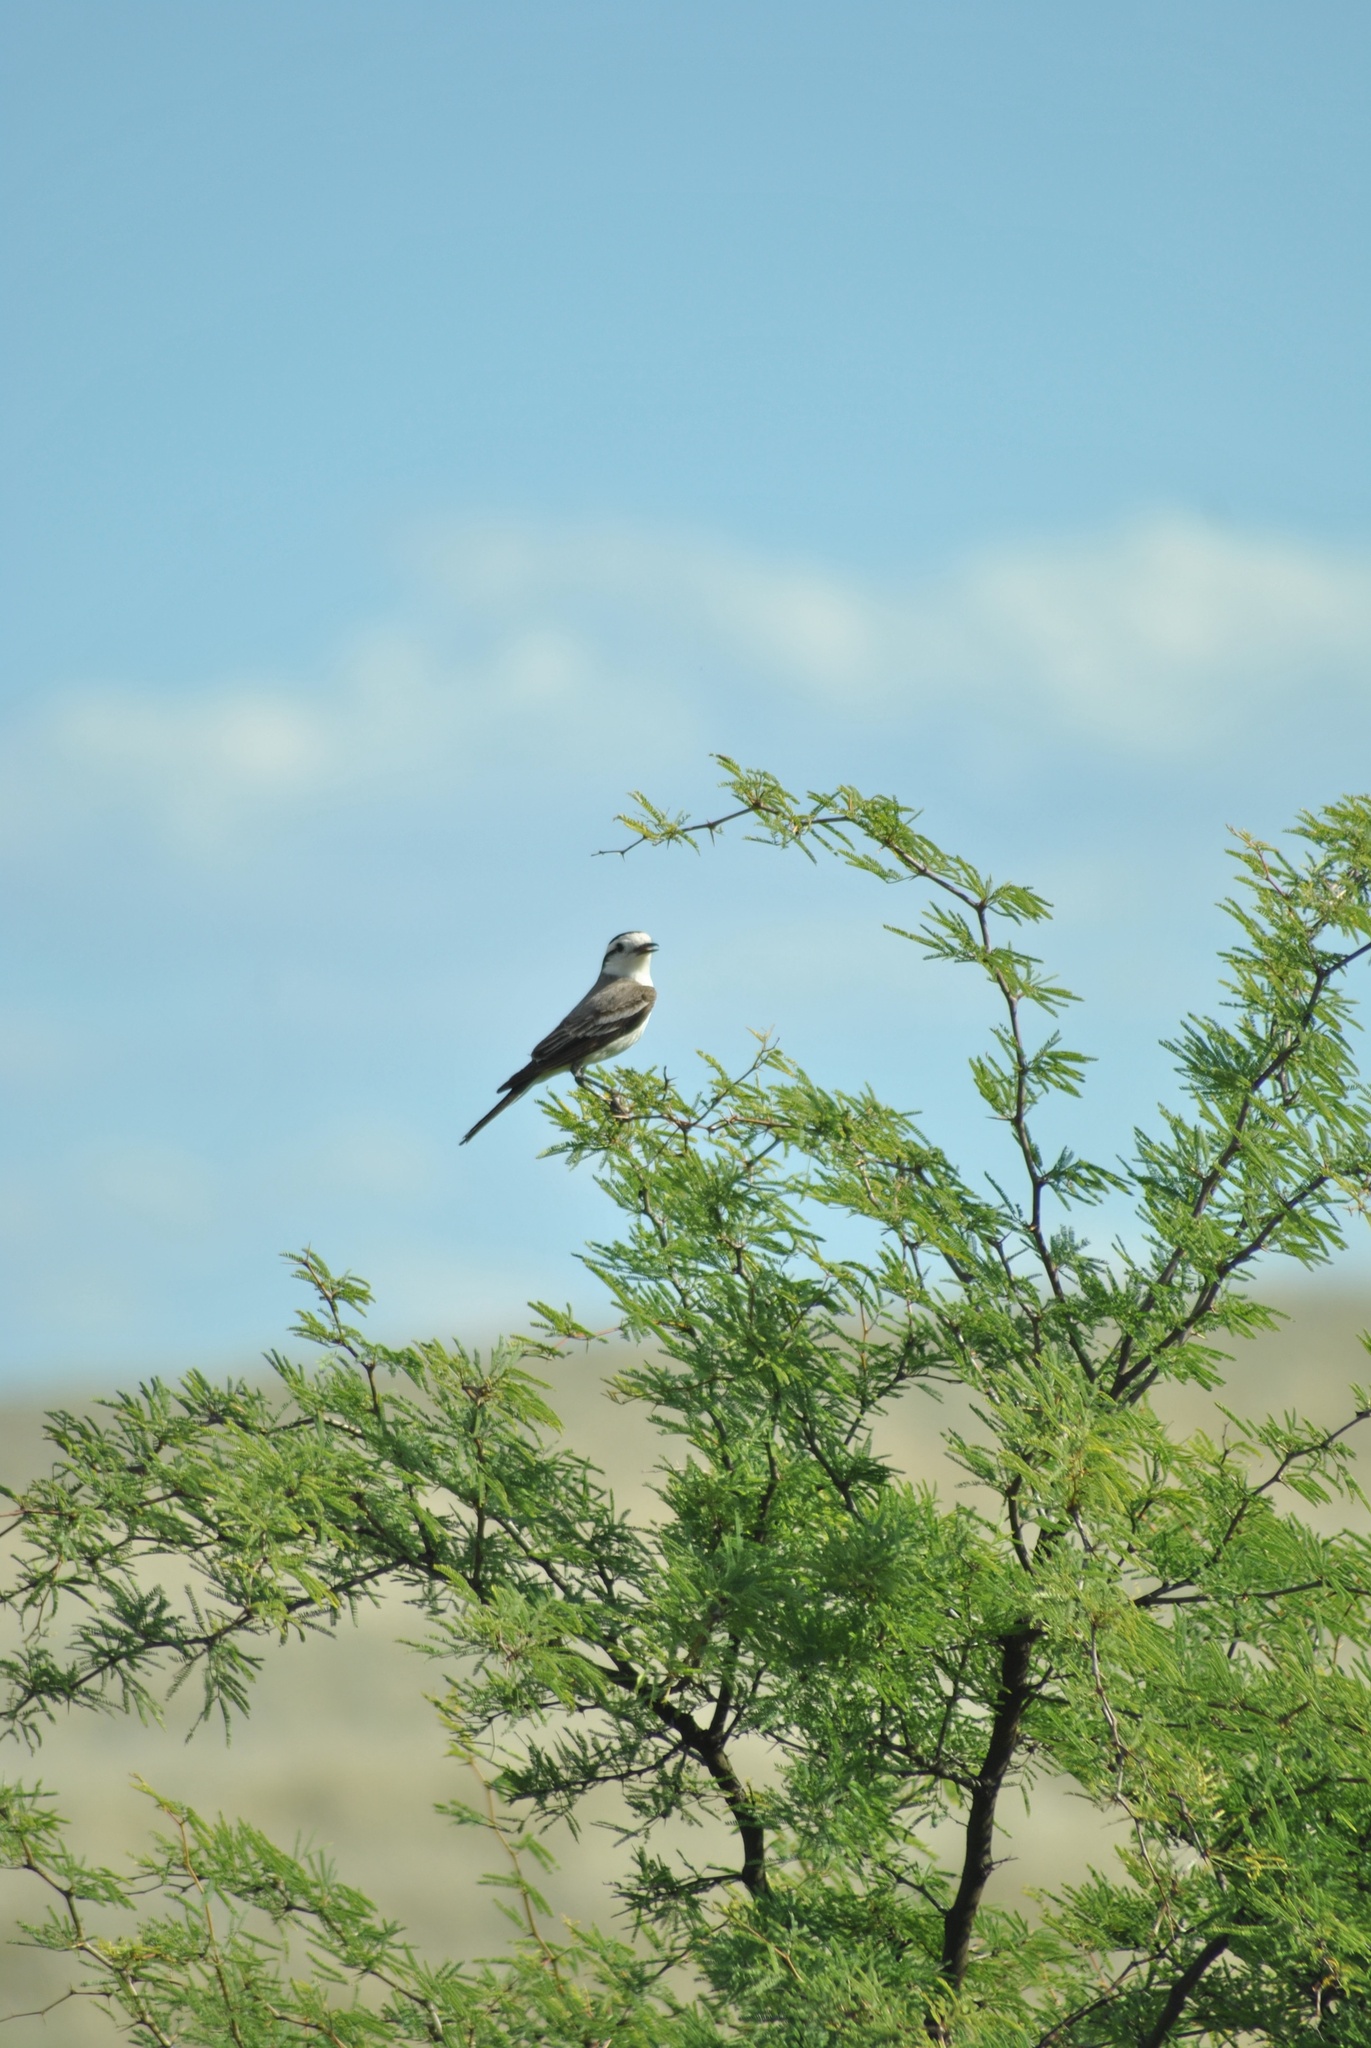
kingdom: Animalia
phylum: Chordata
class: Aves
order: Passeriformes
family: Tyrannidae
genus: Xolmis
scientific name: Xolmis coronatus
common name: Black-crowned monjita
